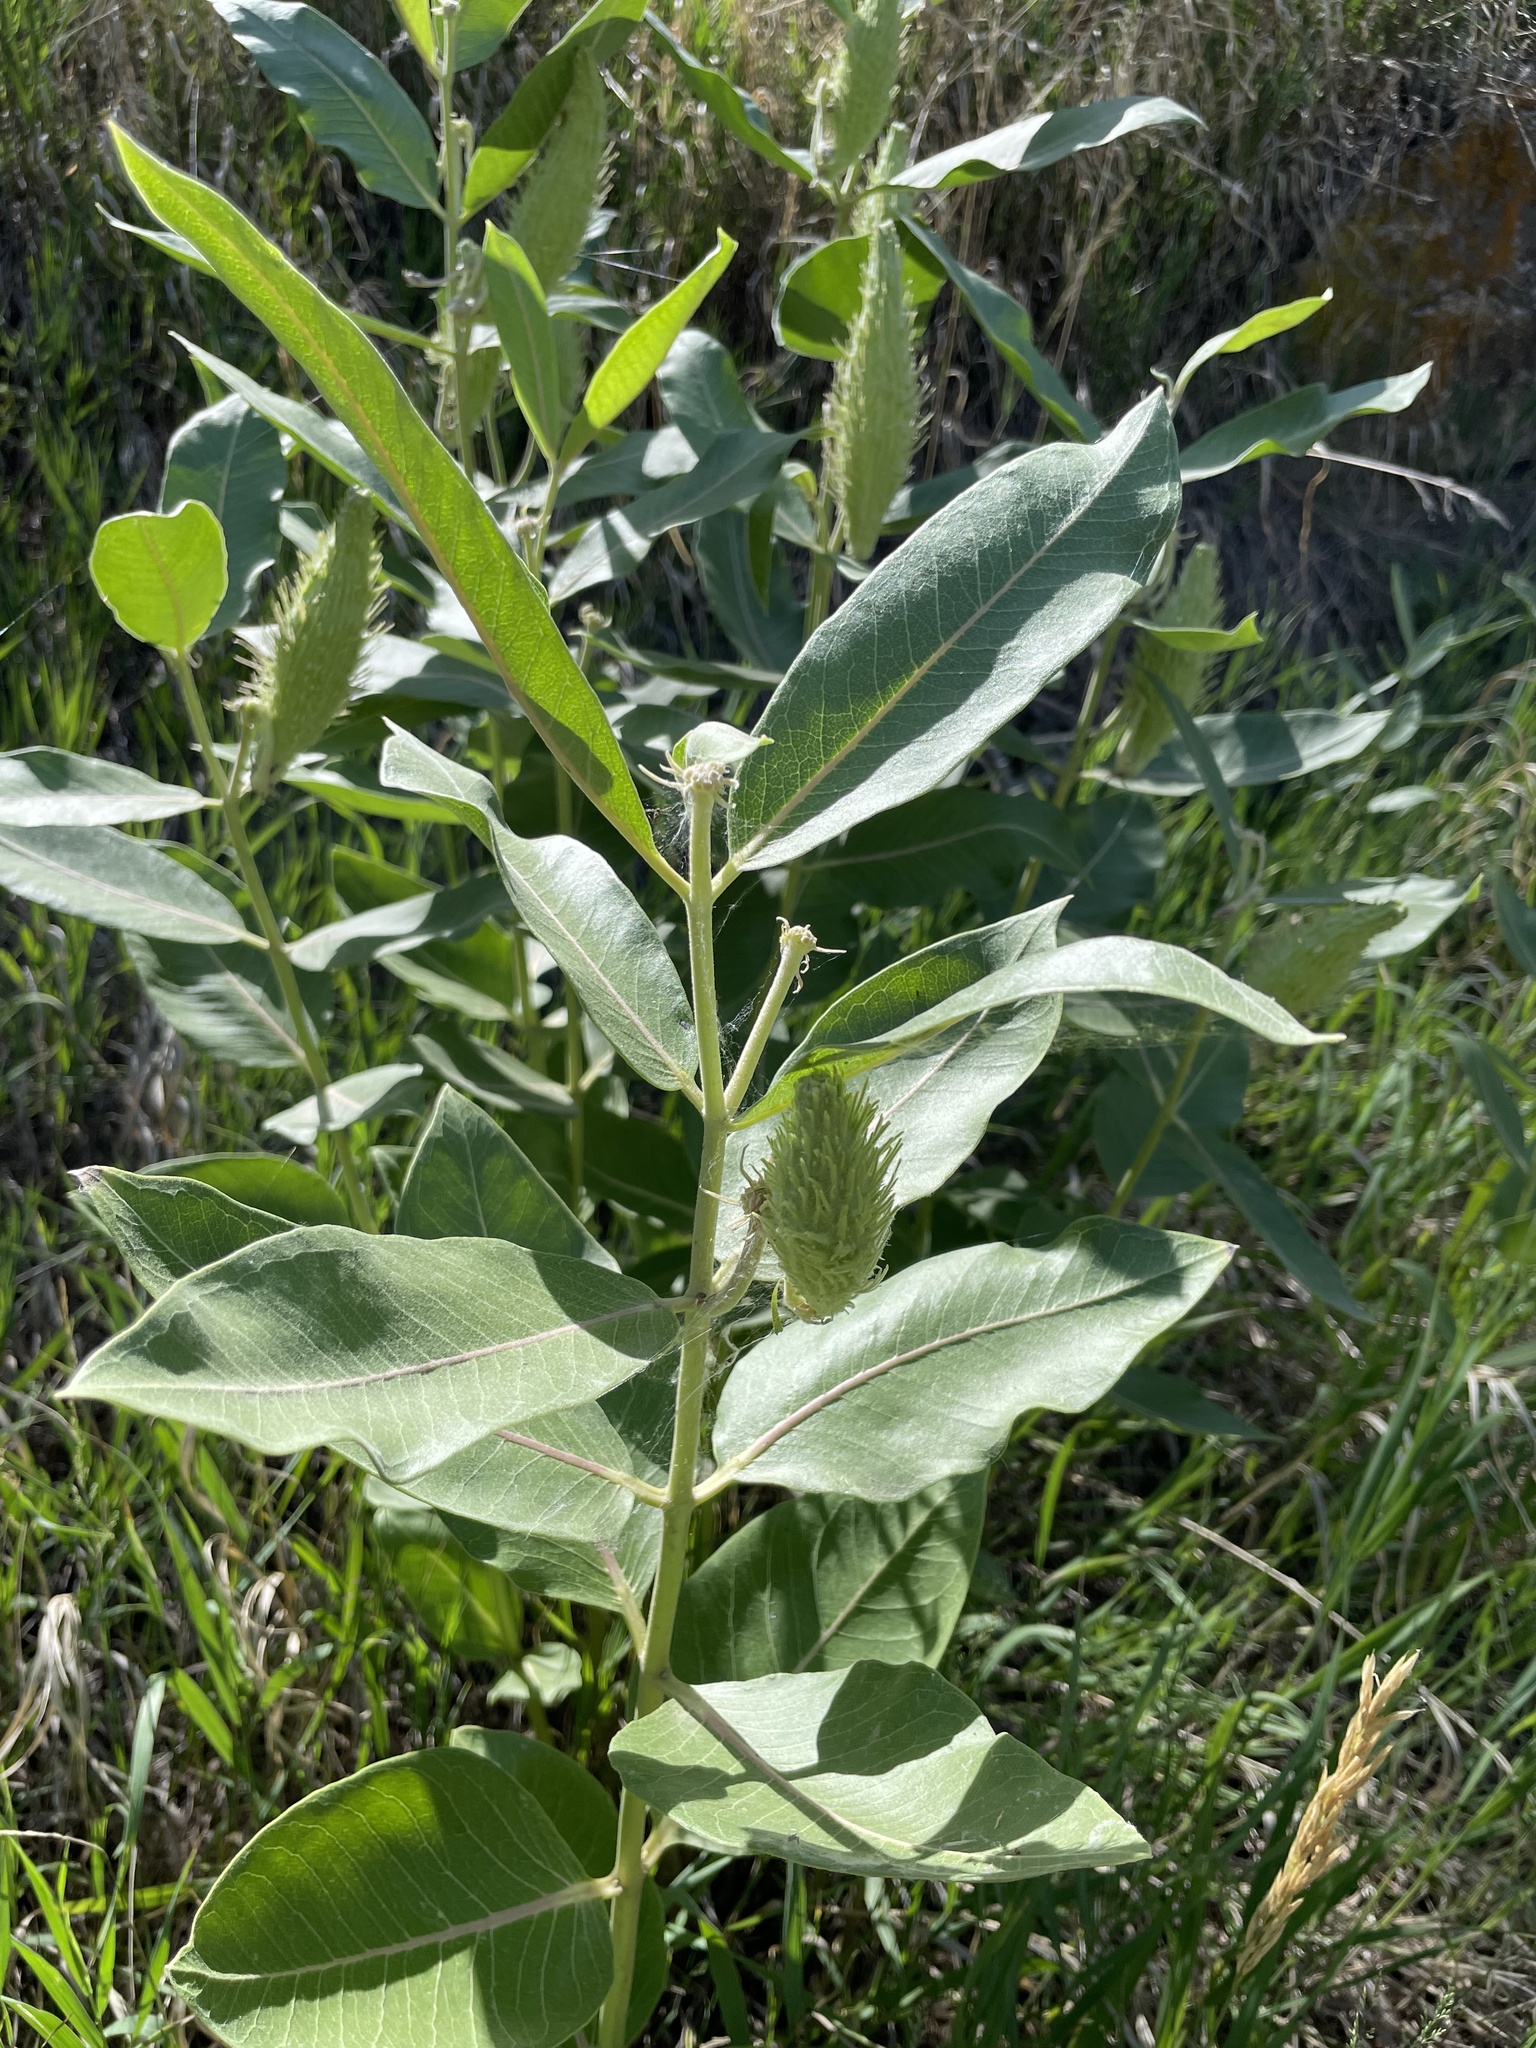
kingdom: Plantae
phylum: Tracheophyta
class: Magnoliopsida
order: Gentianales
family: Apocynaceae
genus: Asclepias
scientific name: Asclepias speciosa
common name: Showy milkweed
